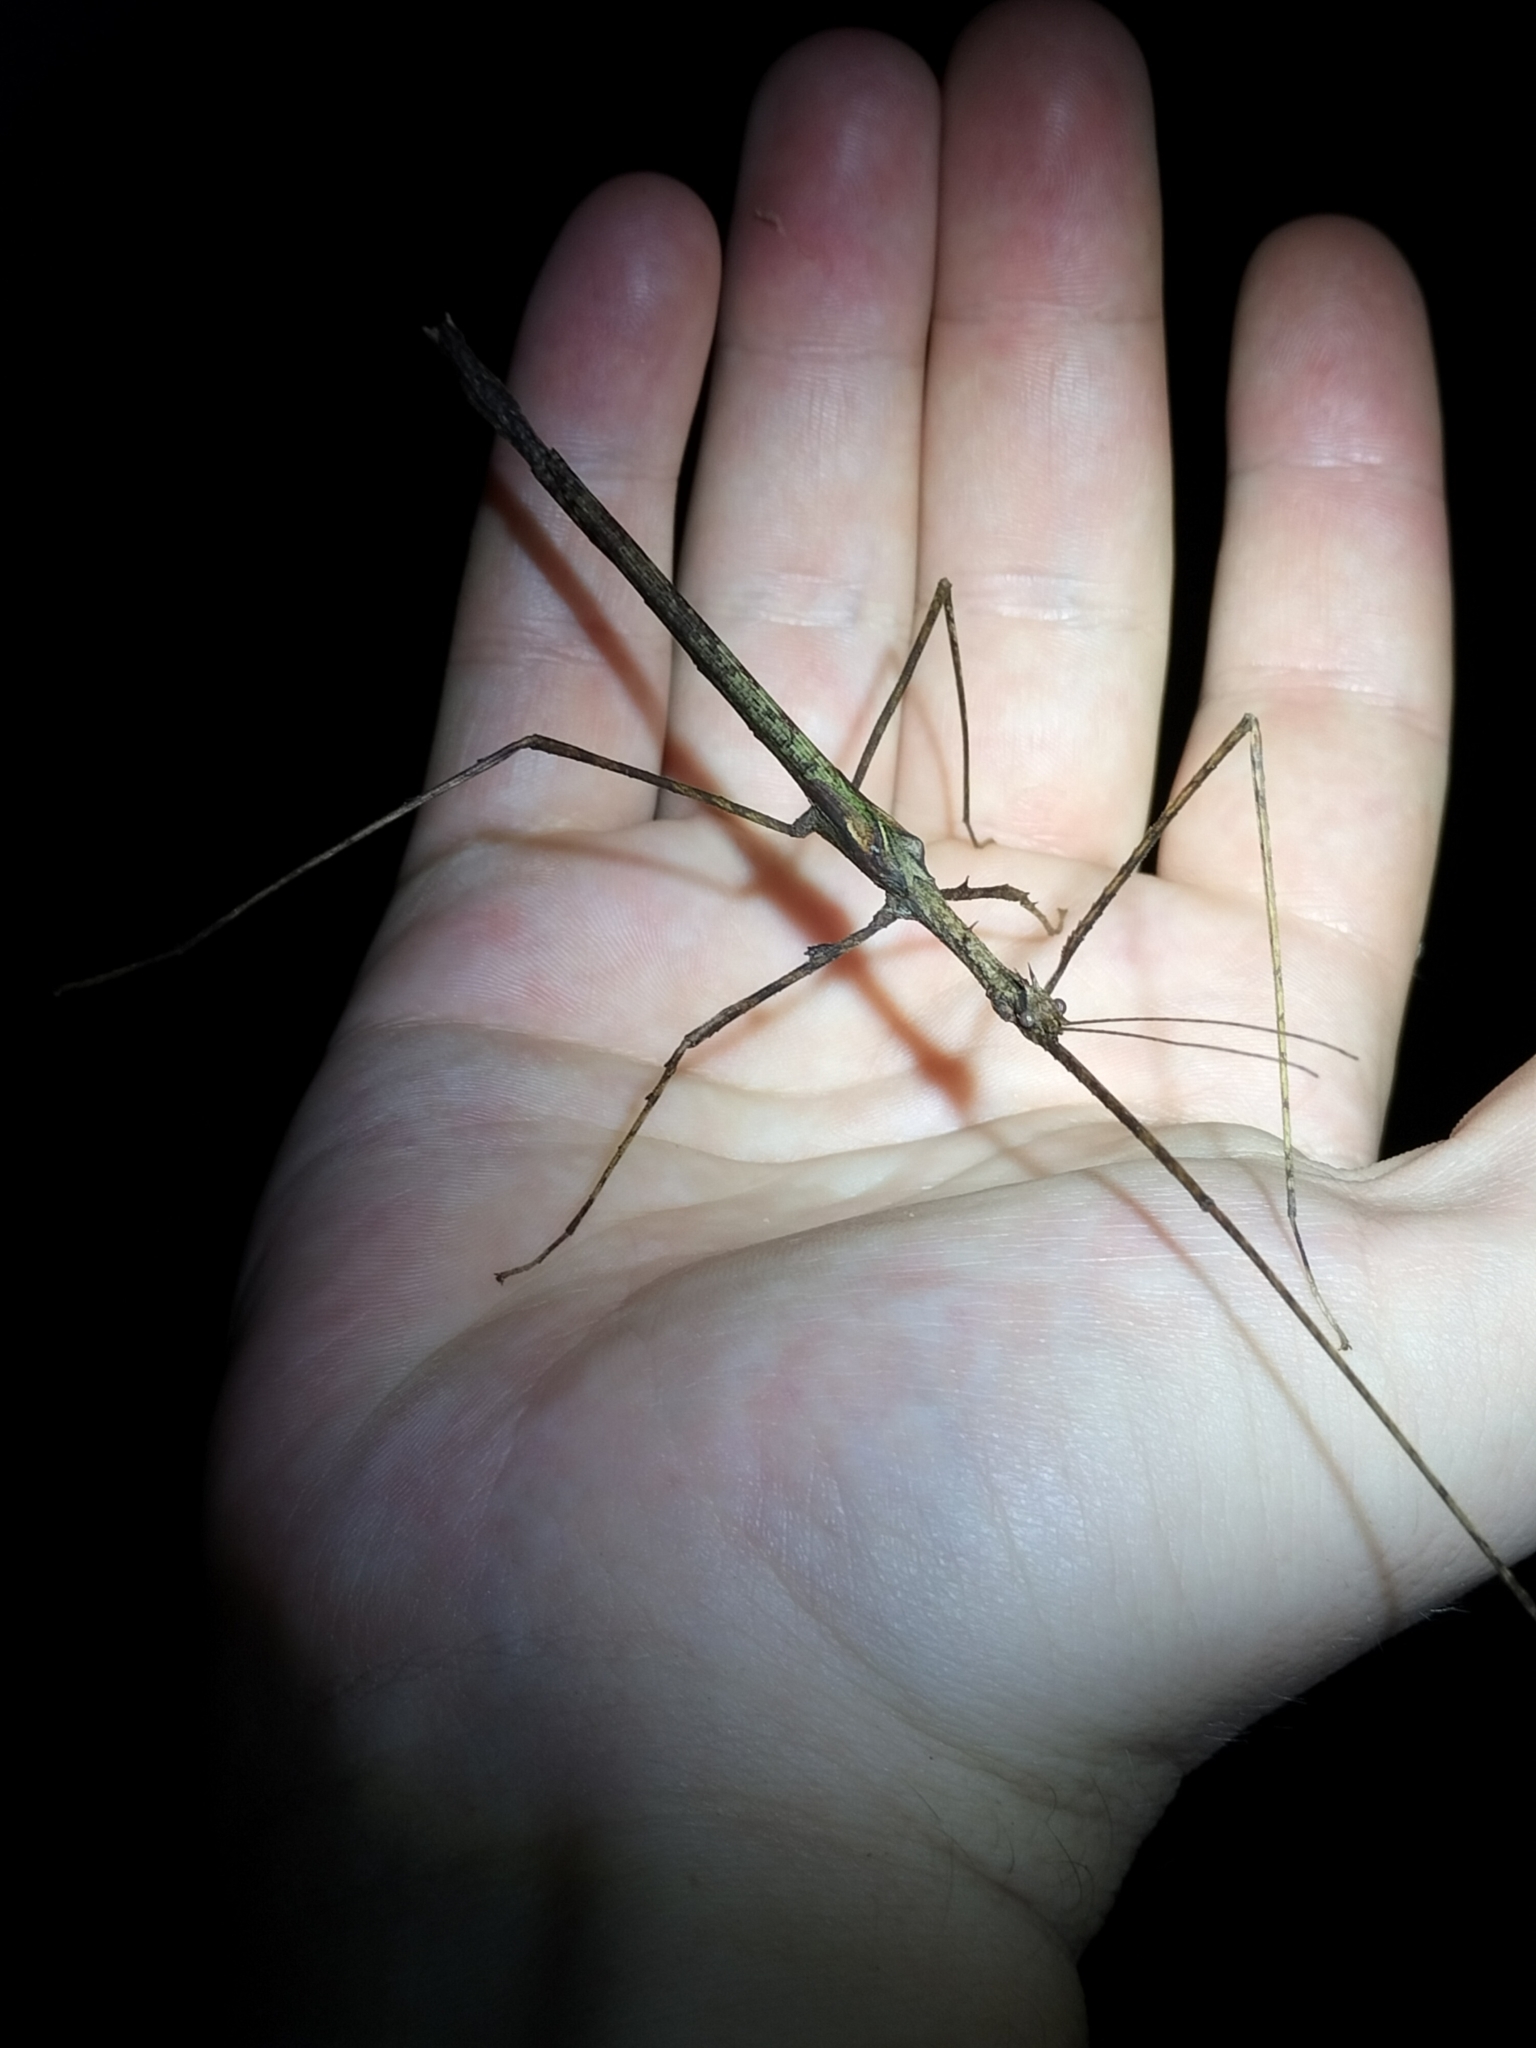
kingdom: Animalia
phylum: Arthropoda
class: Insecta
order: Phasmida
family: Phasmatidae
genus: Onchestus
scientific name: Onchestus rentzi
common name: Rentz's stick-insect
